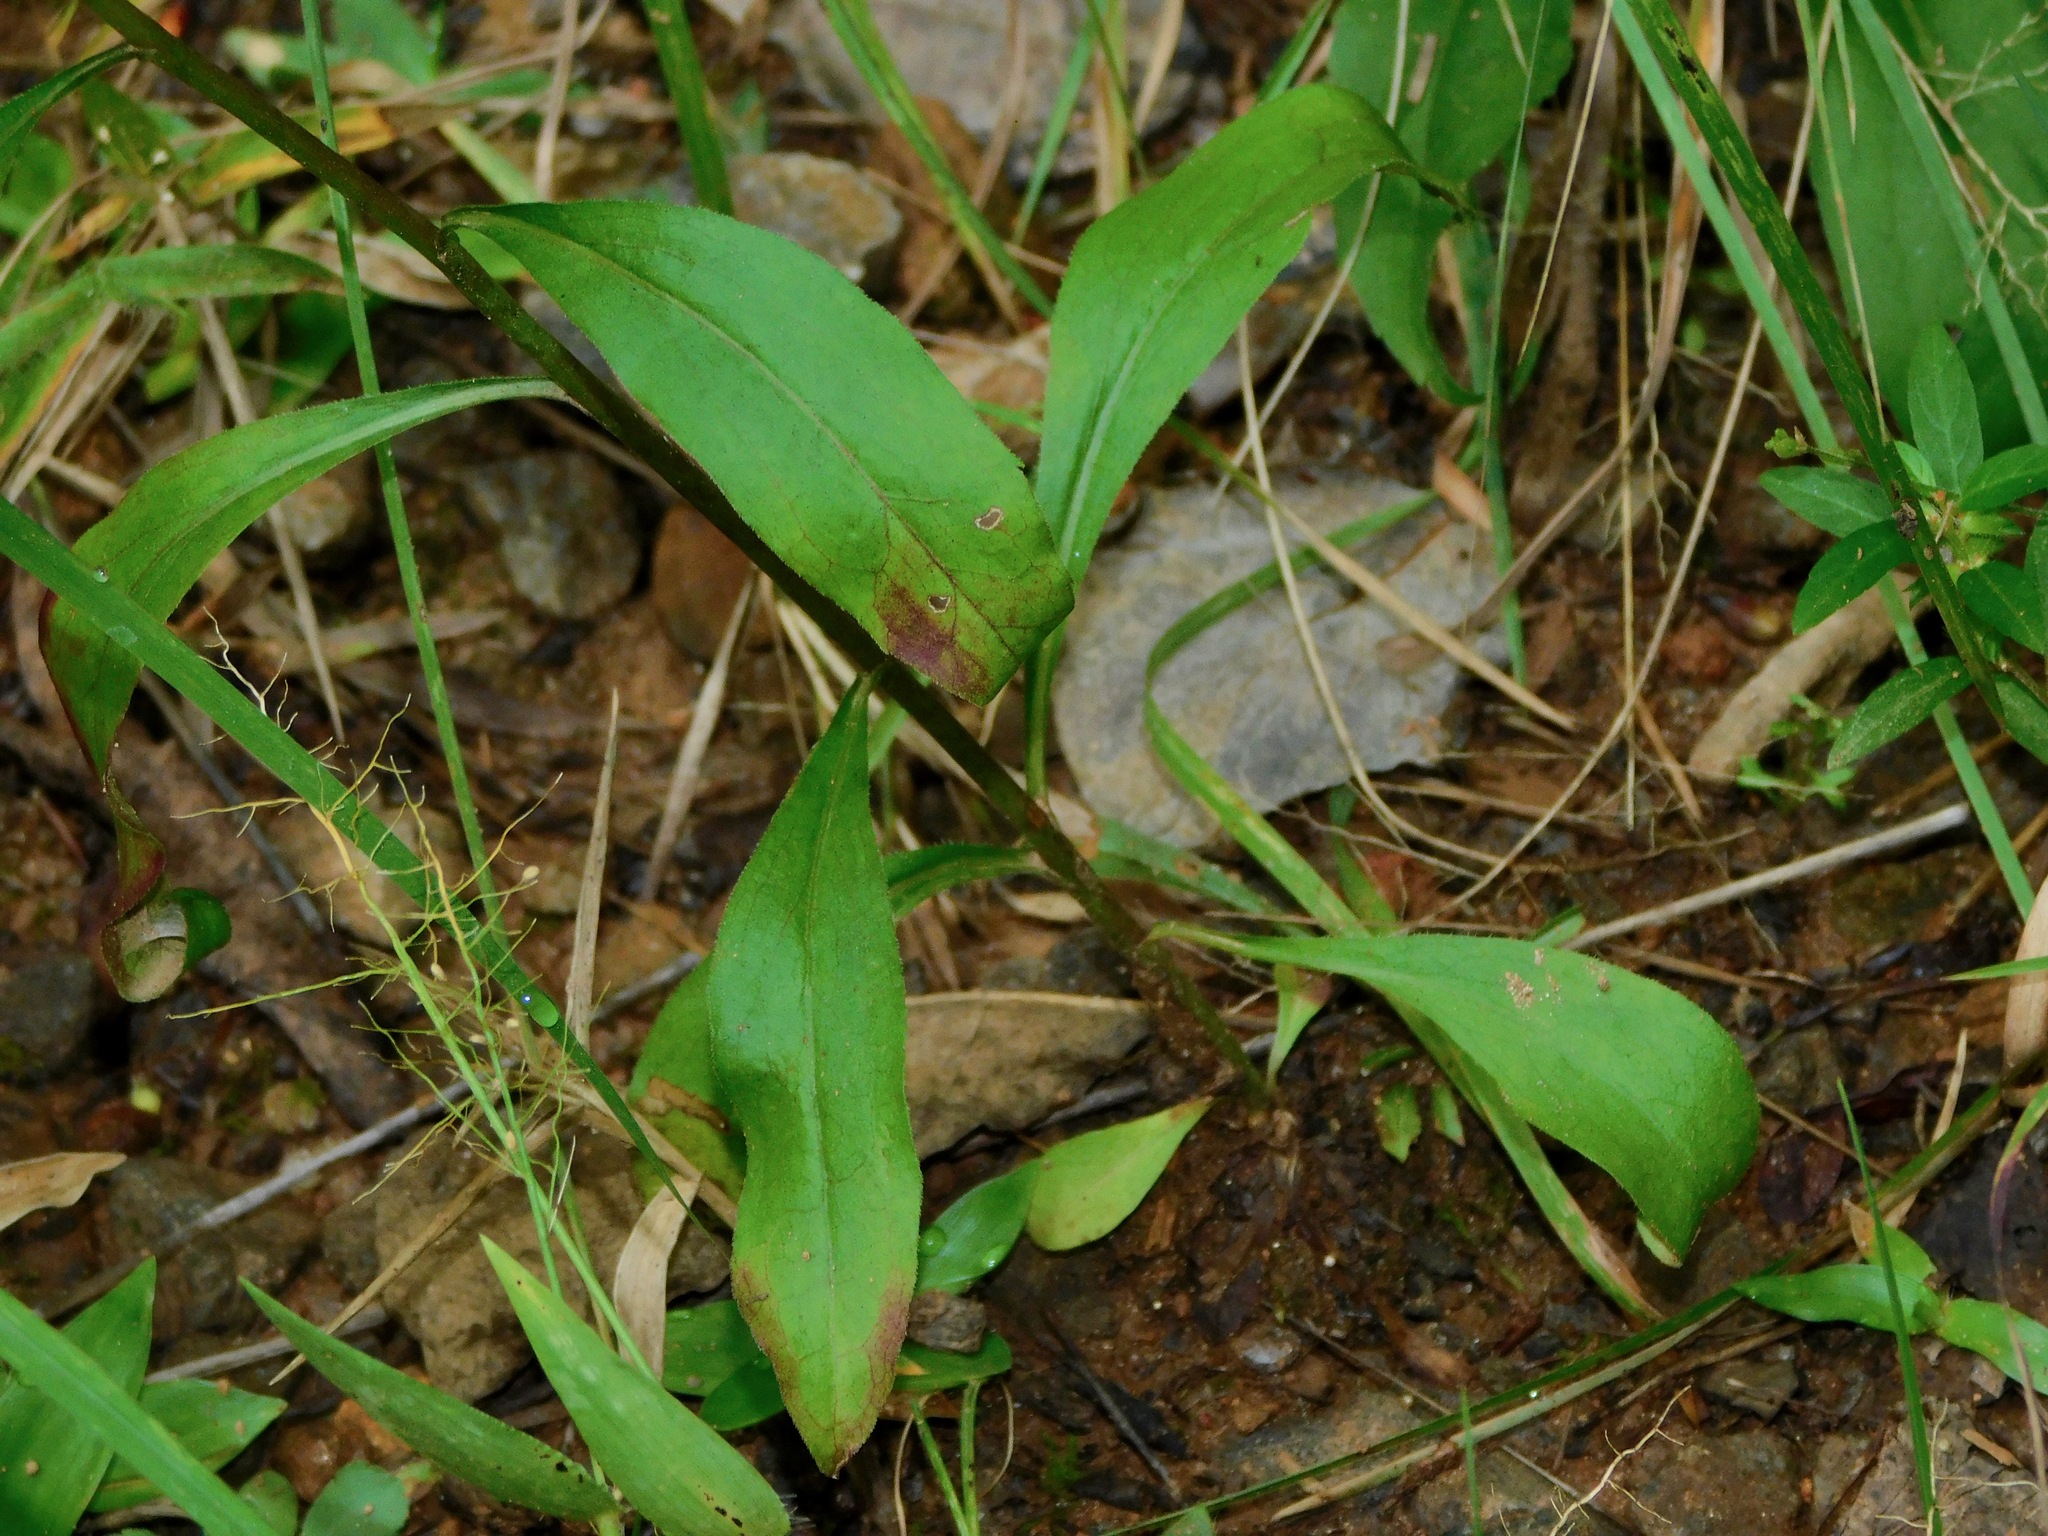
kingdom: Plantae
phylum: Tracheophyta
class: Magnoliopsida
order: Asterales
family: Asteraceae
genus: Solidago
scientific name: Solidago erecta
